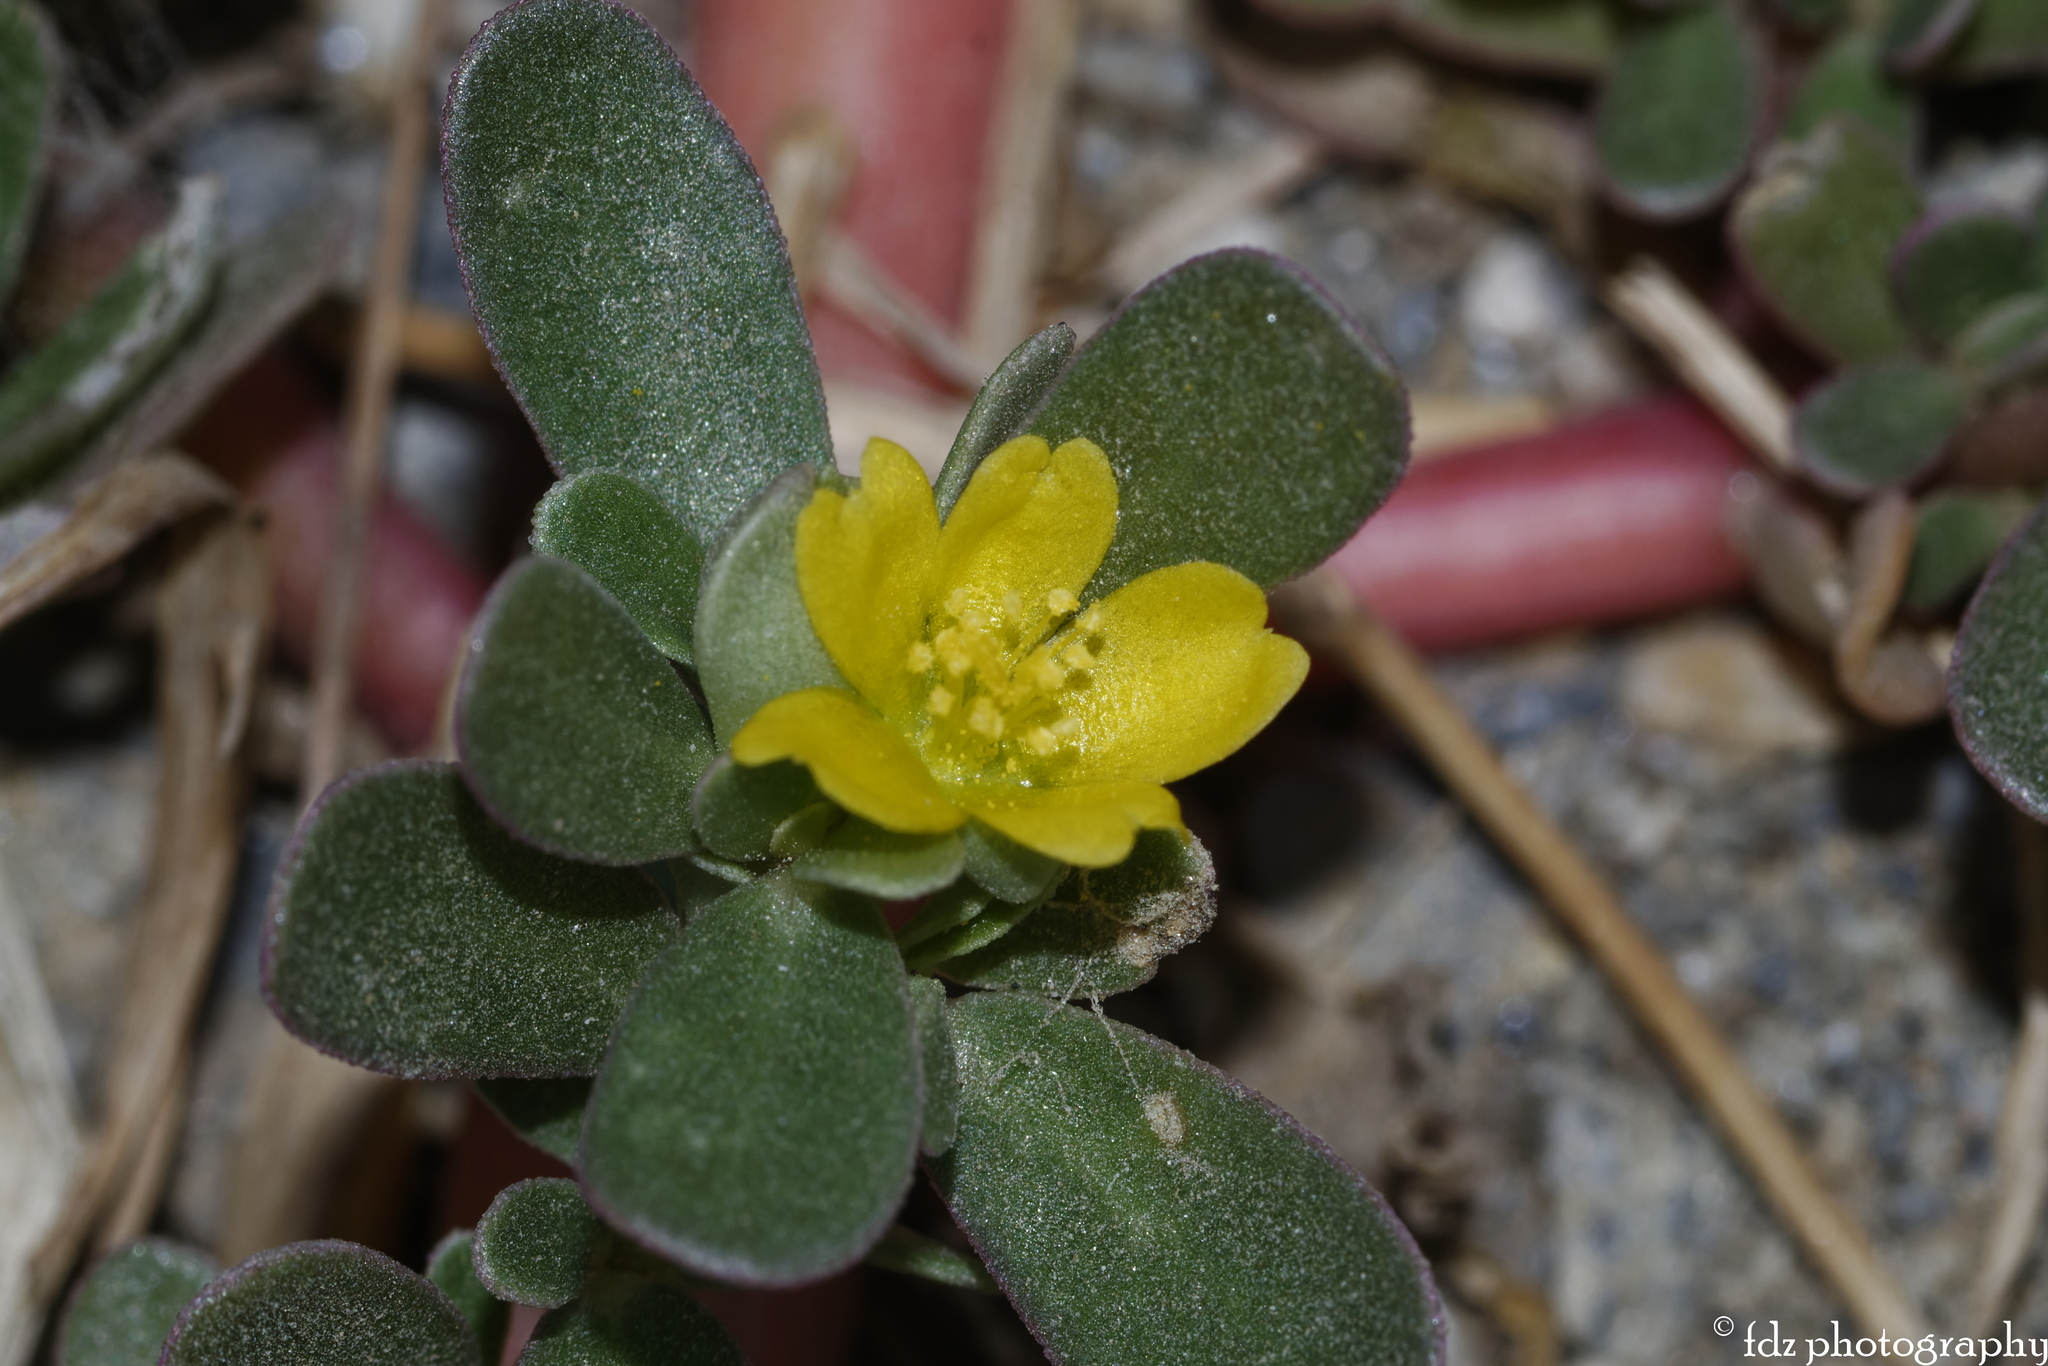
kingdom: Plantae
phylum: Tracheophyta
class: Magnoliopsida
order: Caryophyllales
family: Portulacaceae
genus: Portulaca
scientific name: Portulaca oleracea
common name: Common purslane
